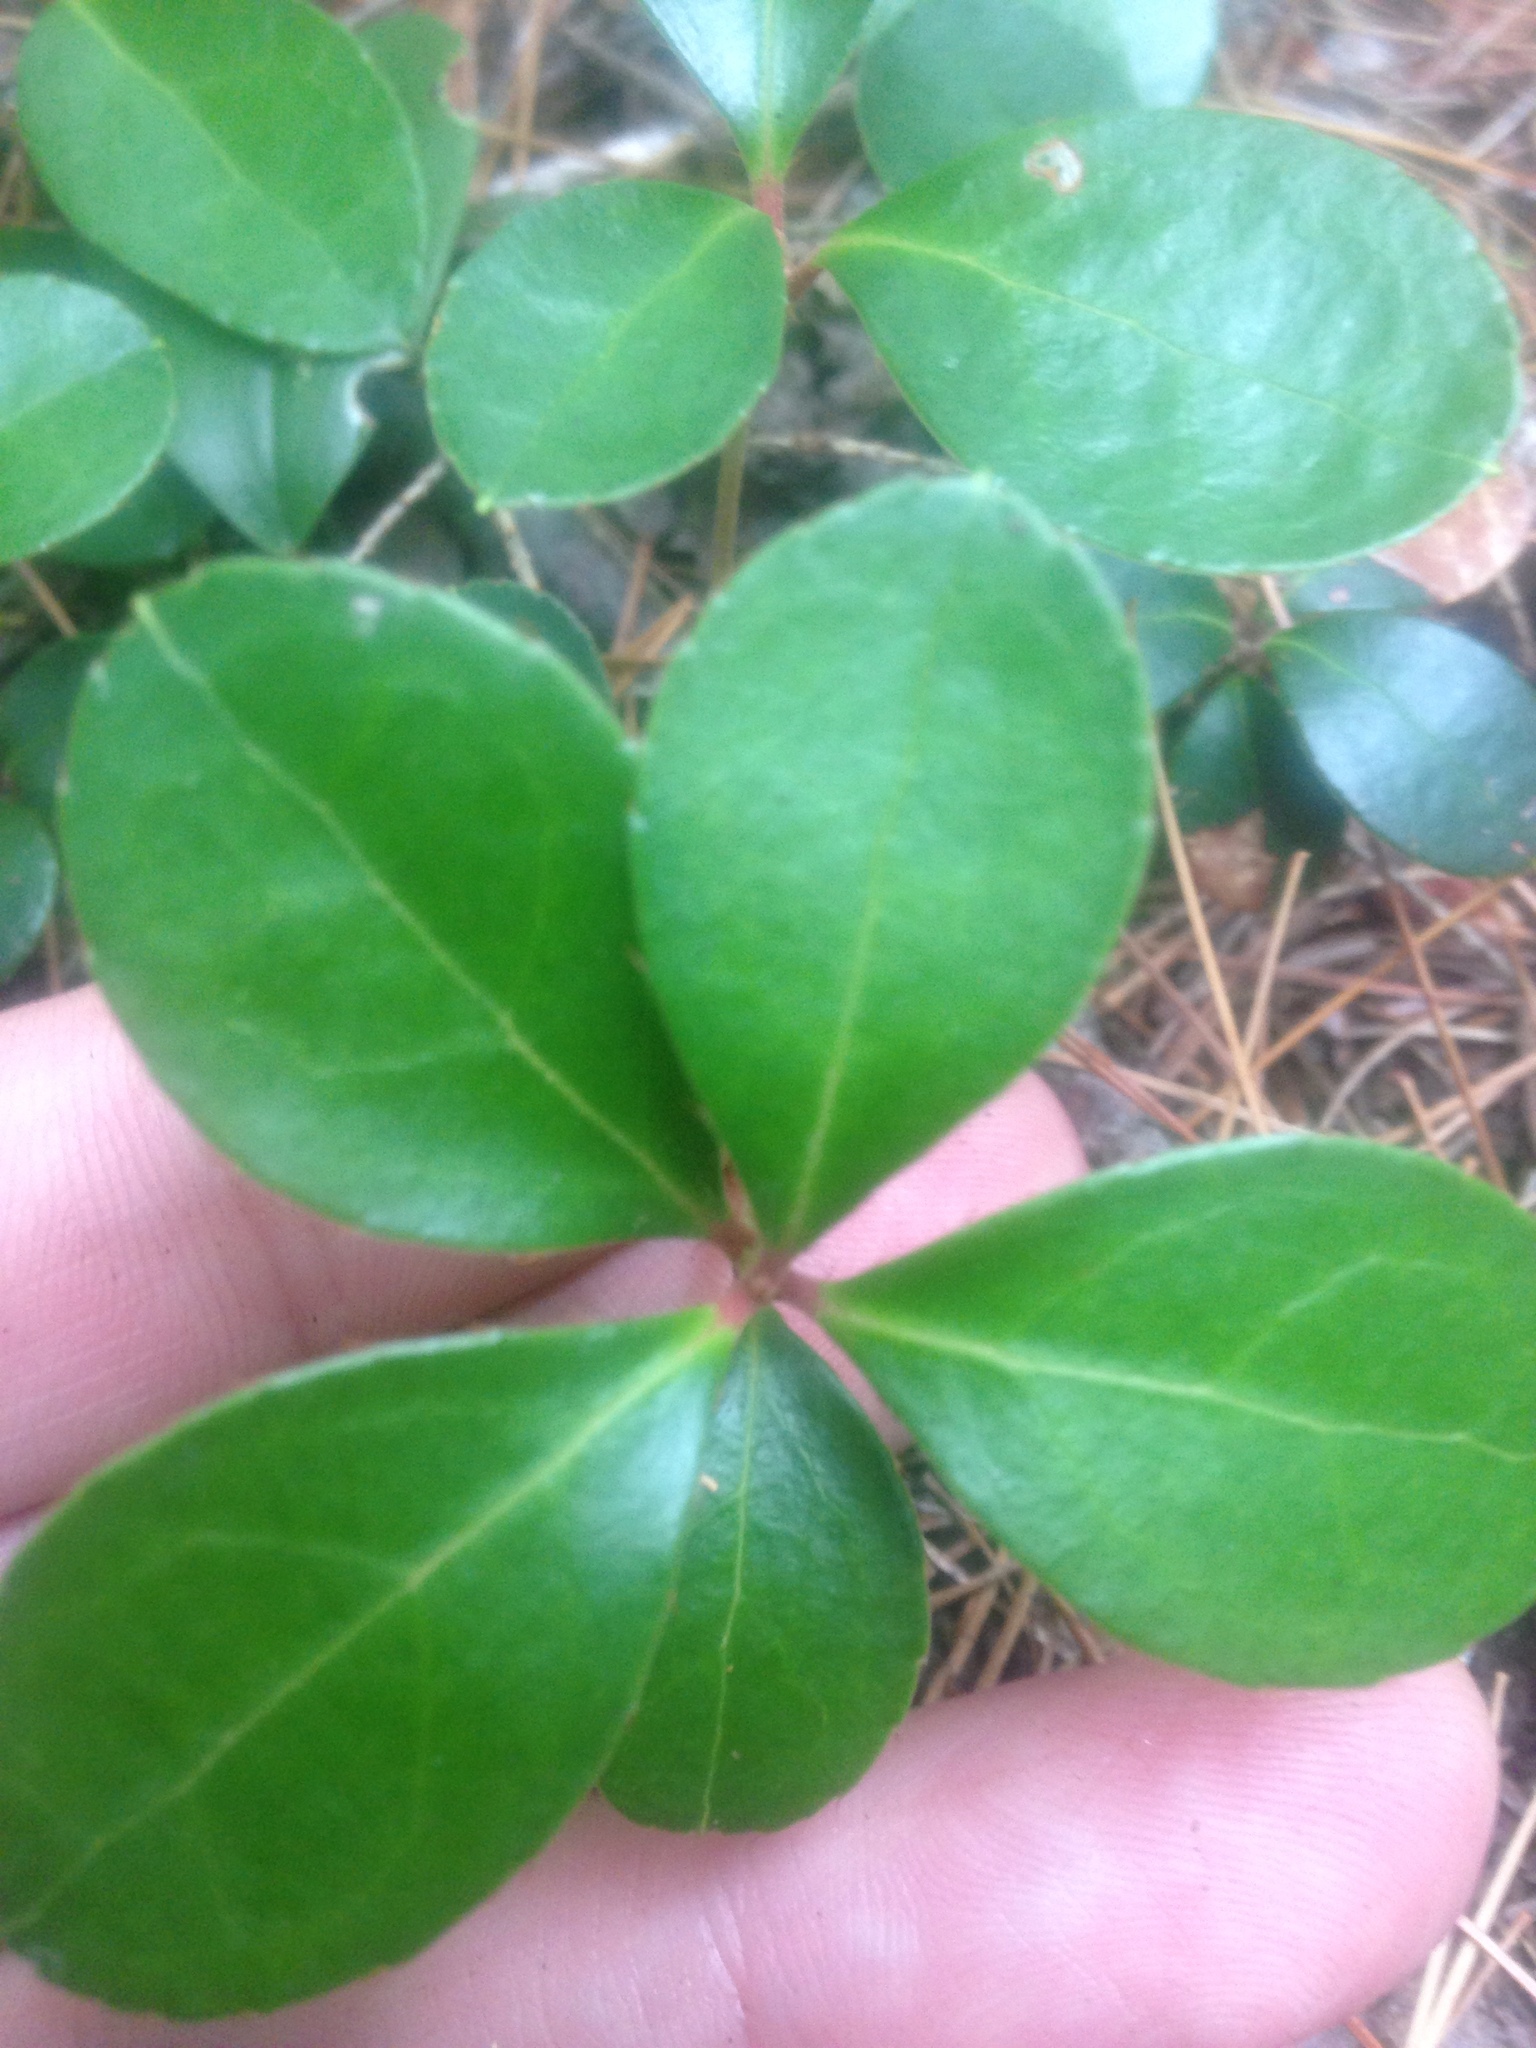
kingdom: Plantae
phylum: Tracheophyta
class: Magnoliopsida
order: Ericales
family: Ericaceae
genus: Gaultheria
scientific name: Gaultheria procumbens
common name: Checkerberry
